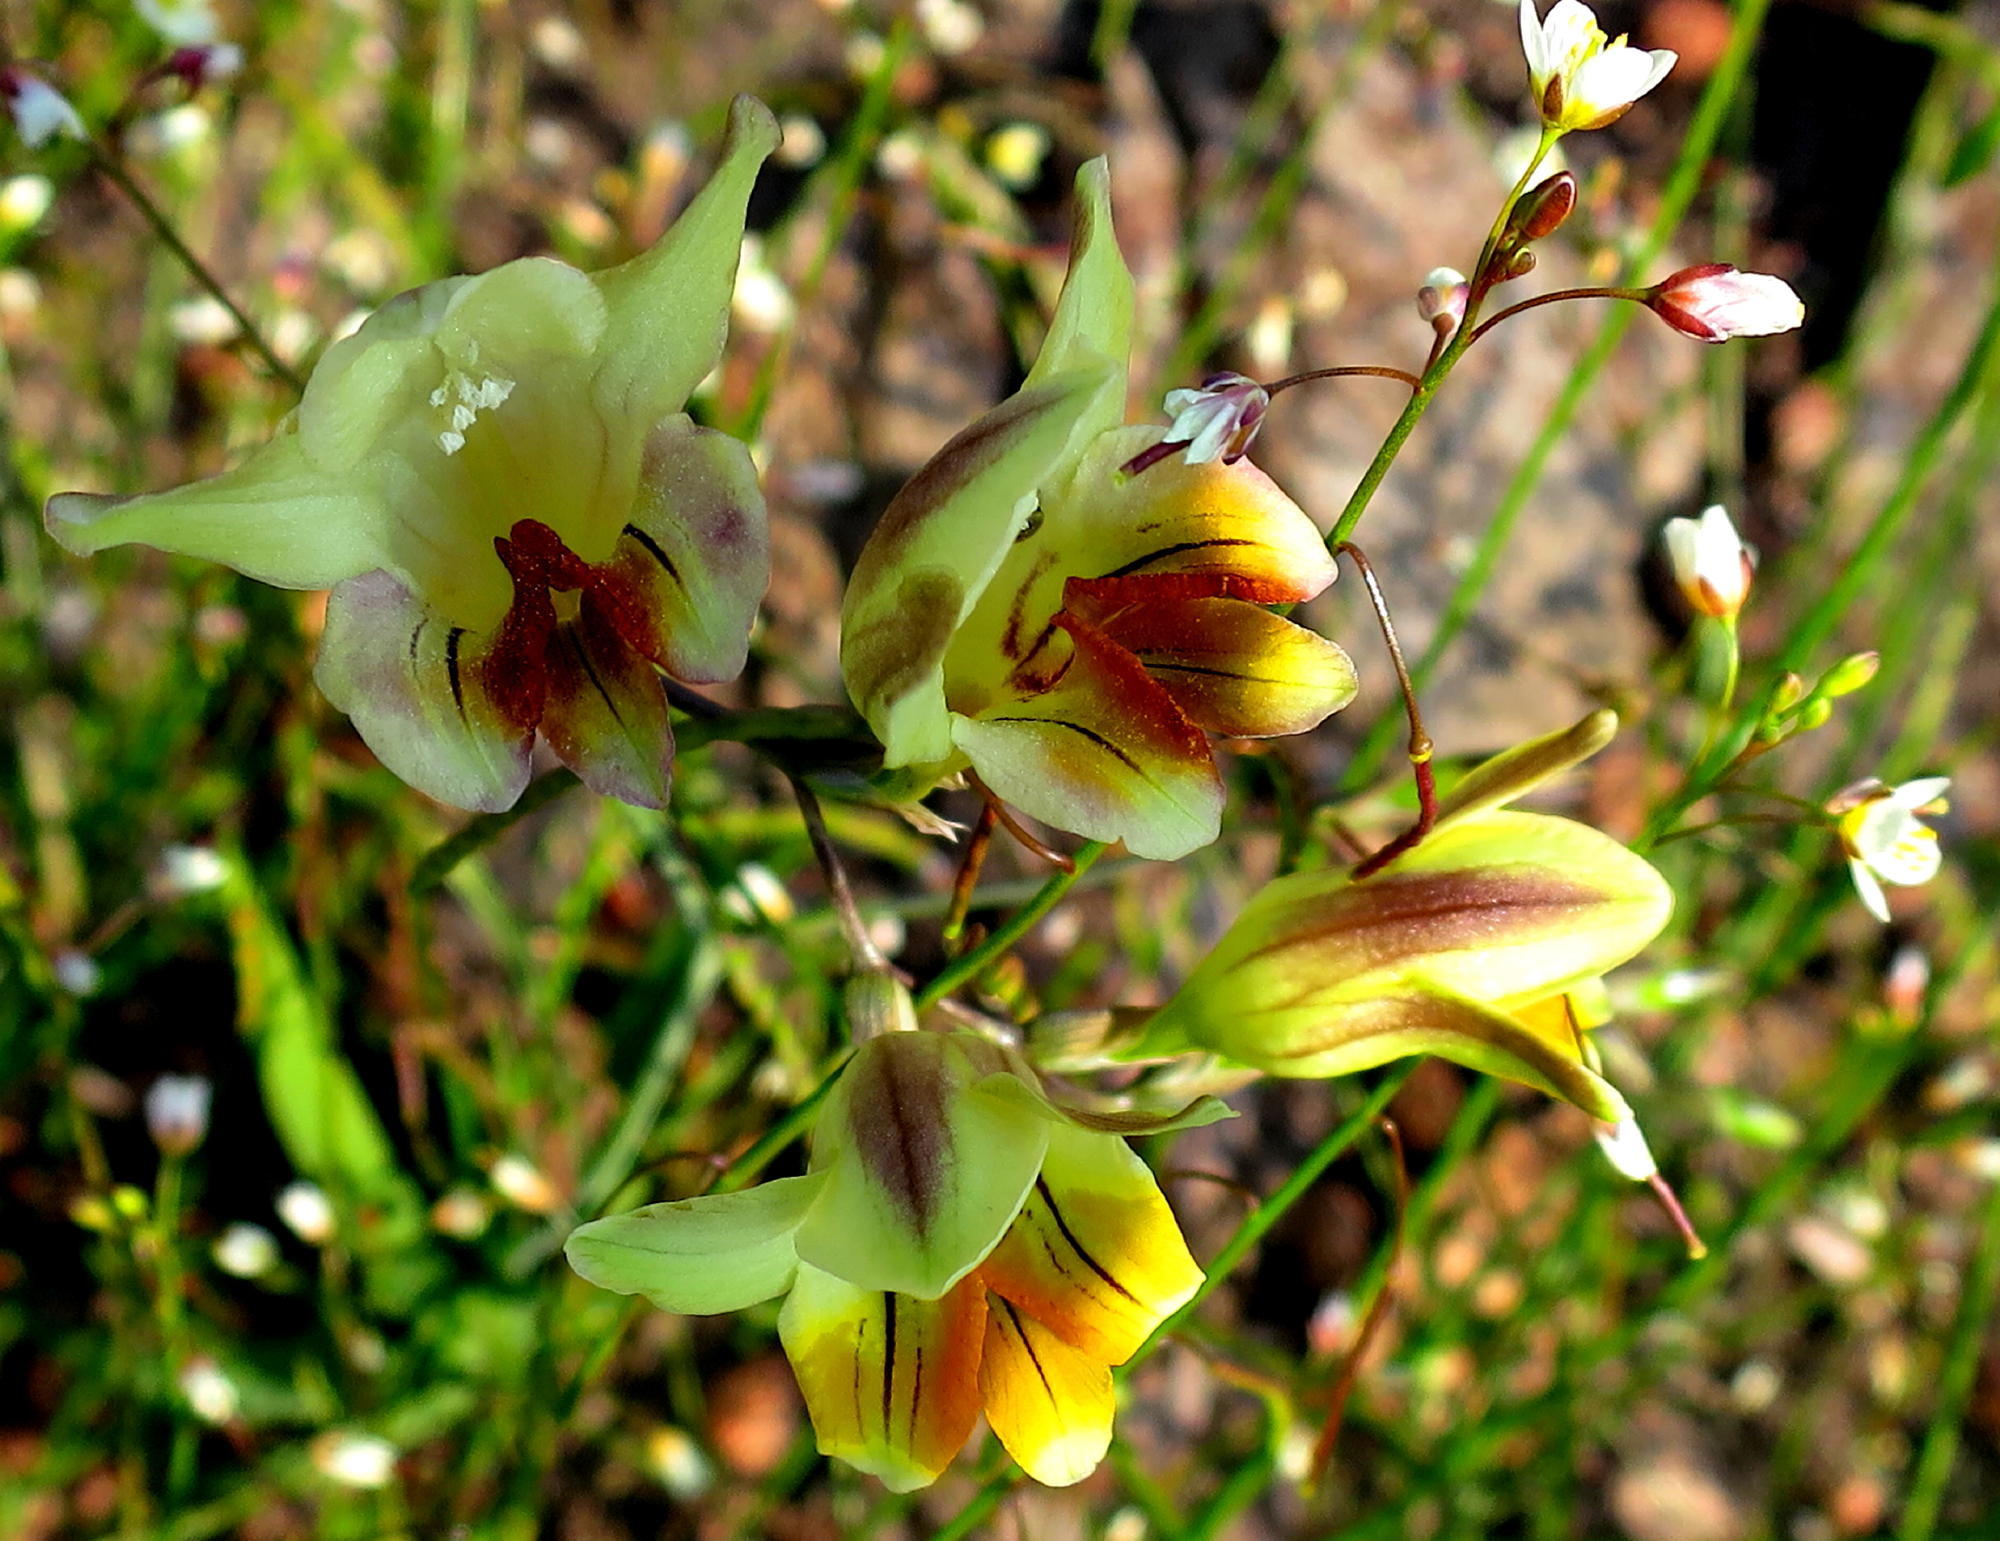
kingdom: Plantae
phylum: Tracheophyta
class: Liliopsida
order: Asparagales
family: Iridaceae
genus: Freesia
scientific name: Freesia refracta
